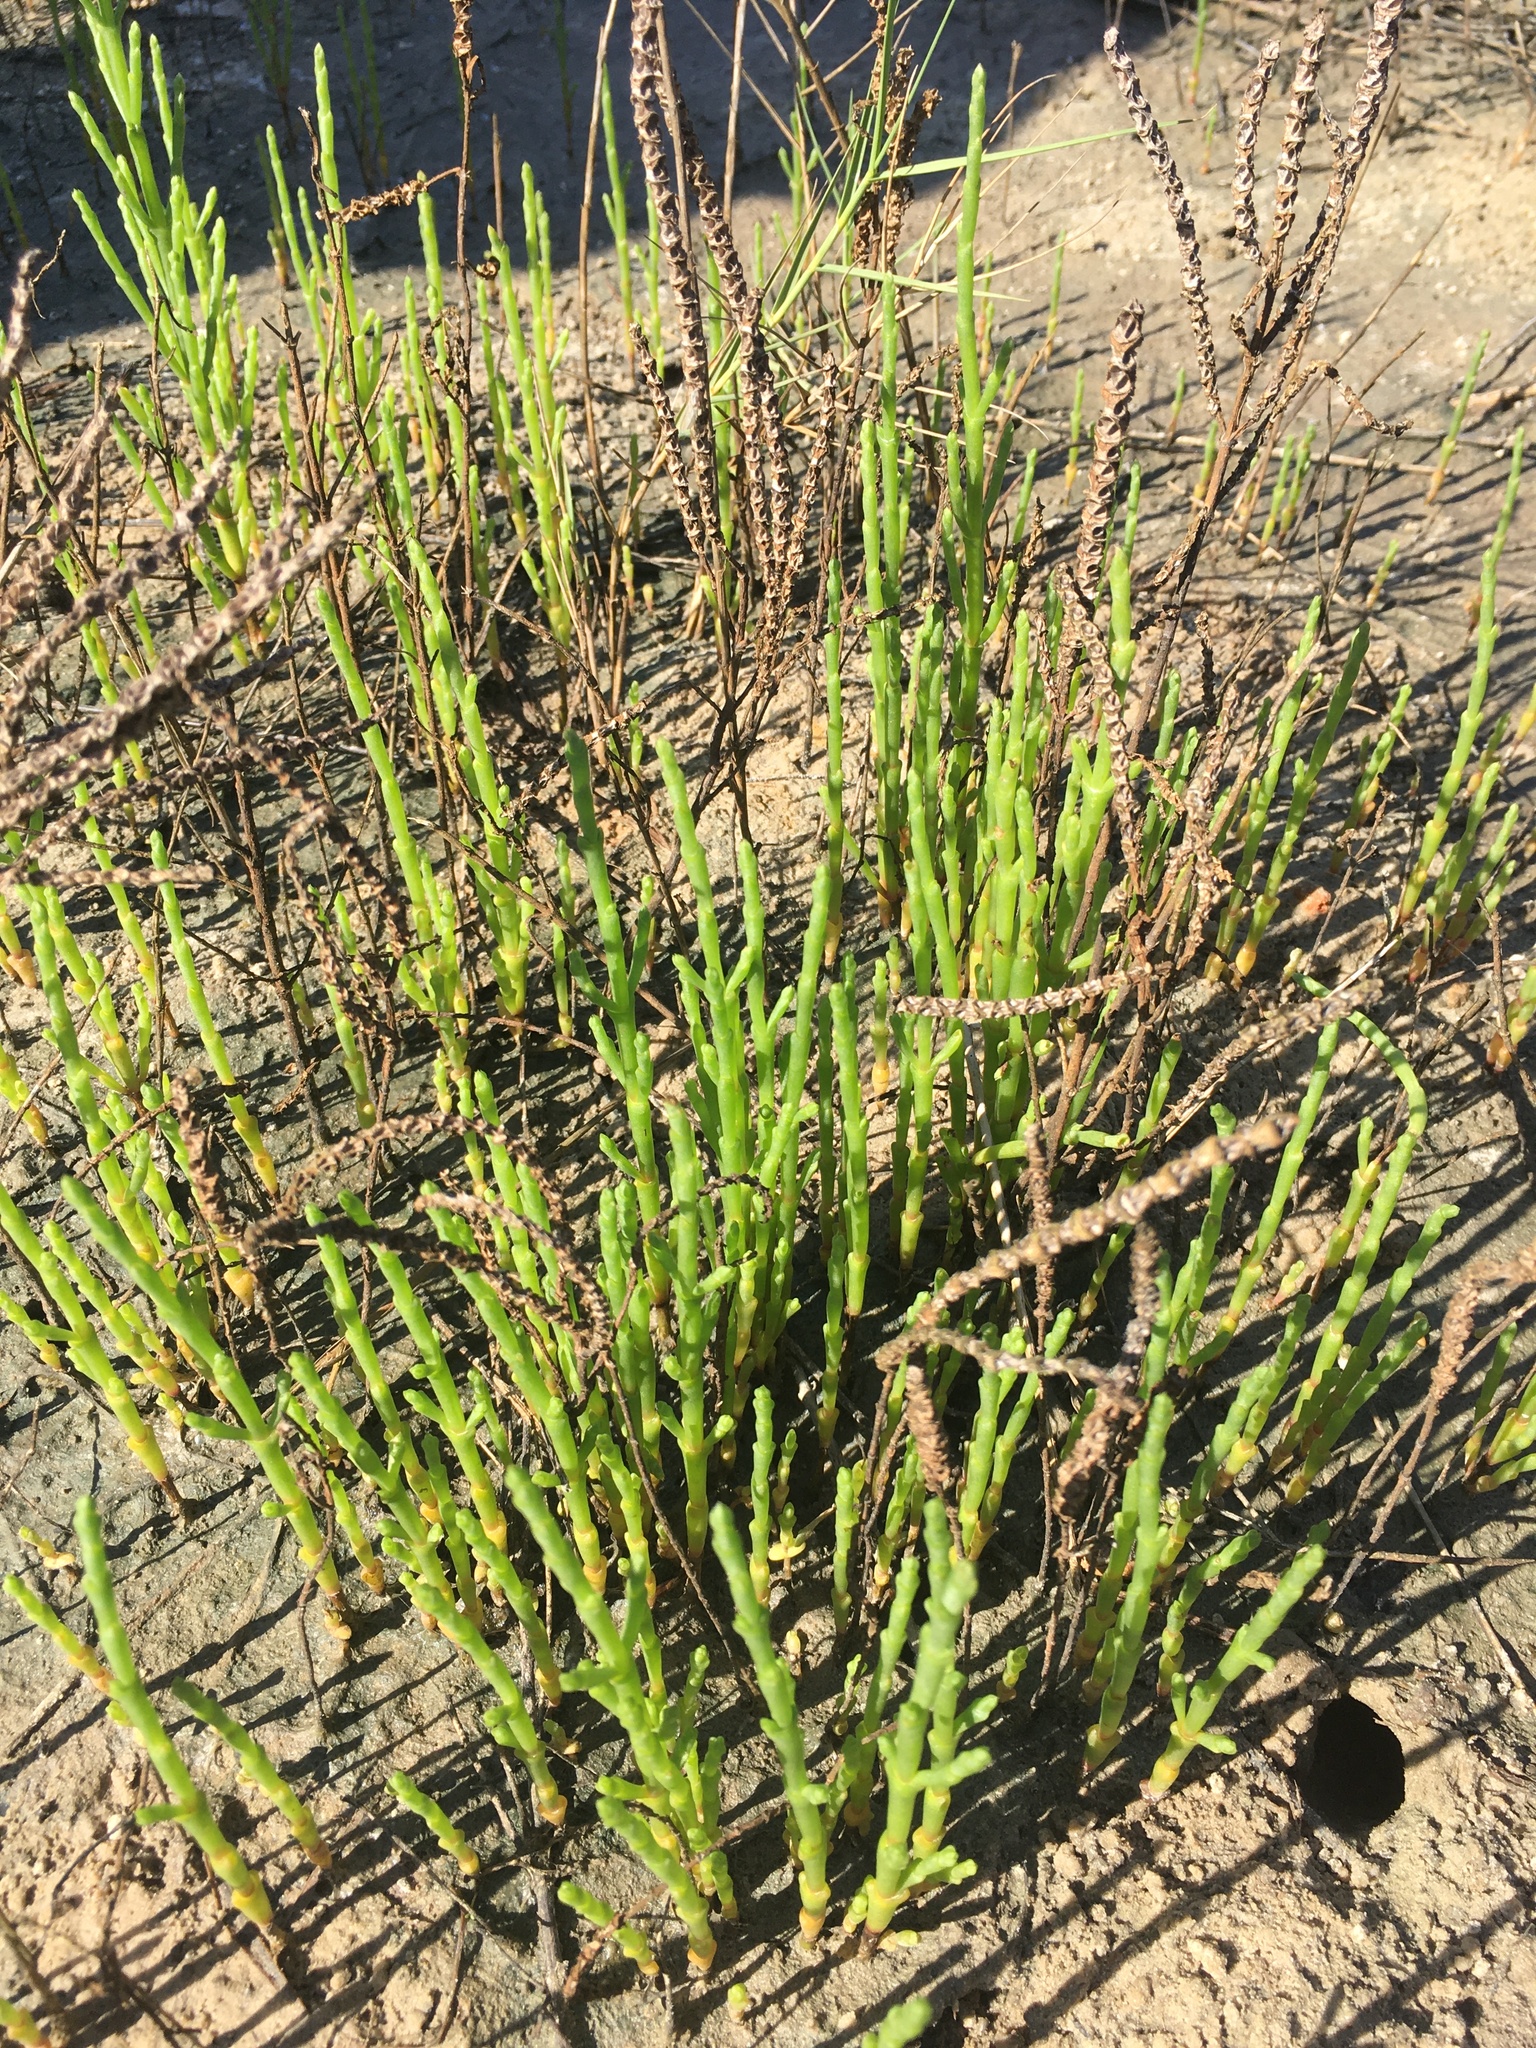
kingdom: Plantae
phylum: Tracheophyta
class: Magnoliopsida
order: Caryophyllales
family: Amaranthaceae
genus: Salicornia
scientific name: Salicornia bigelovii
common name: Dwarf glasswort
